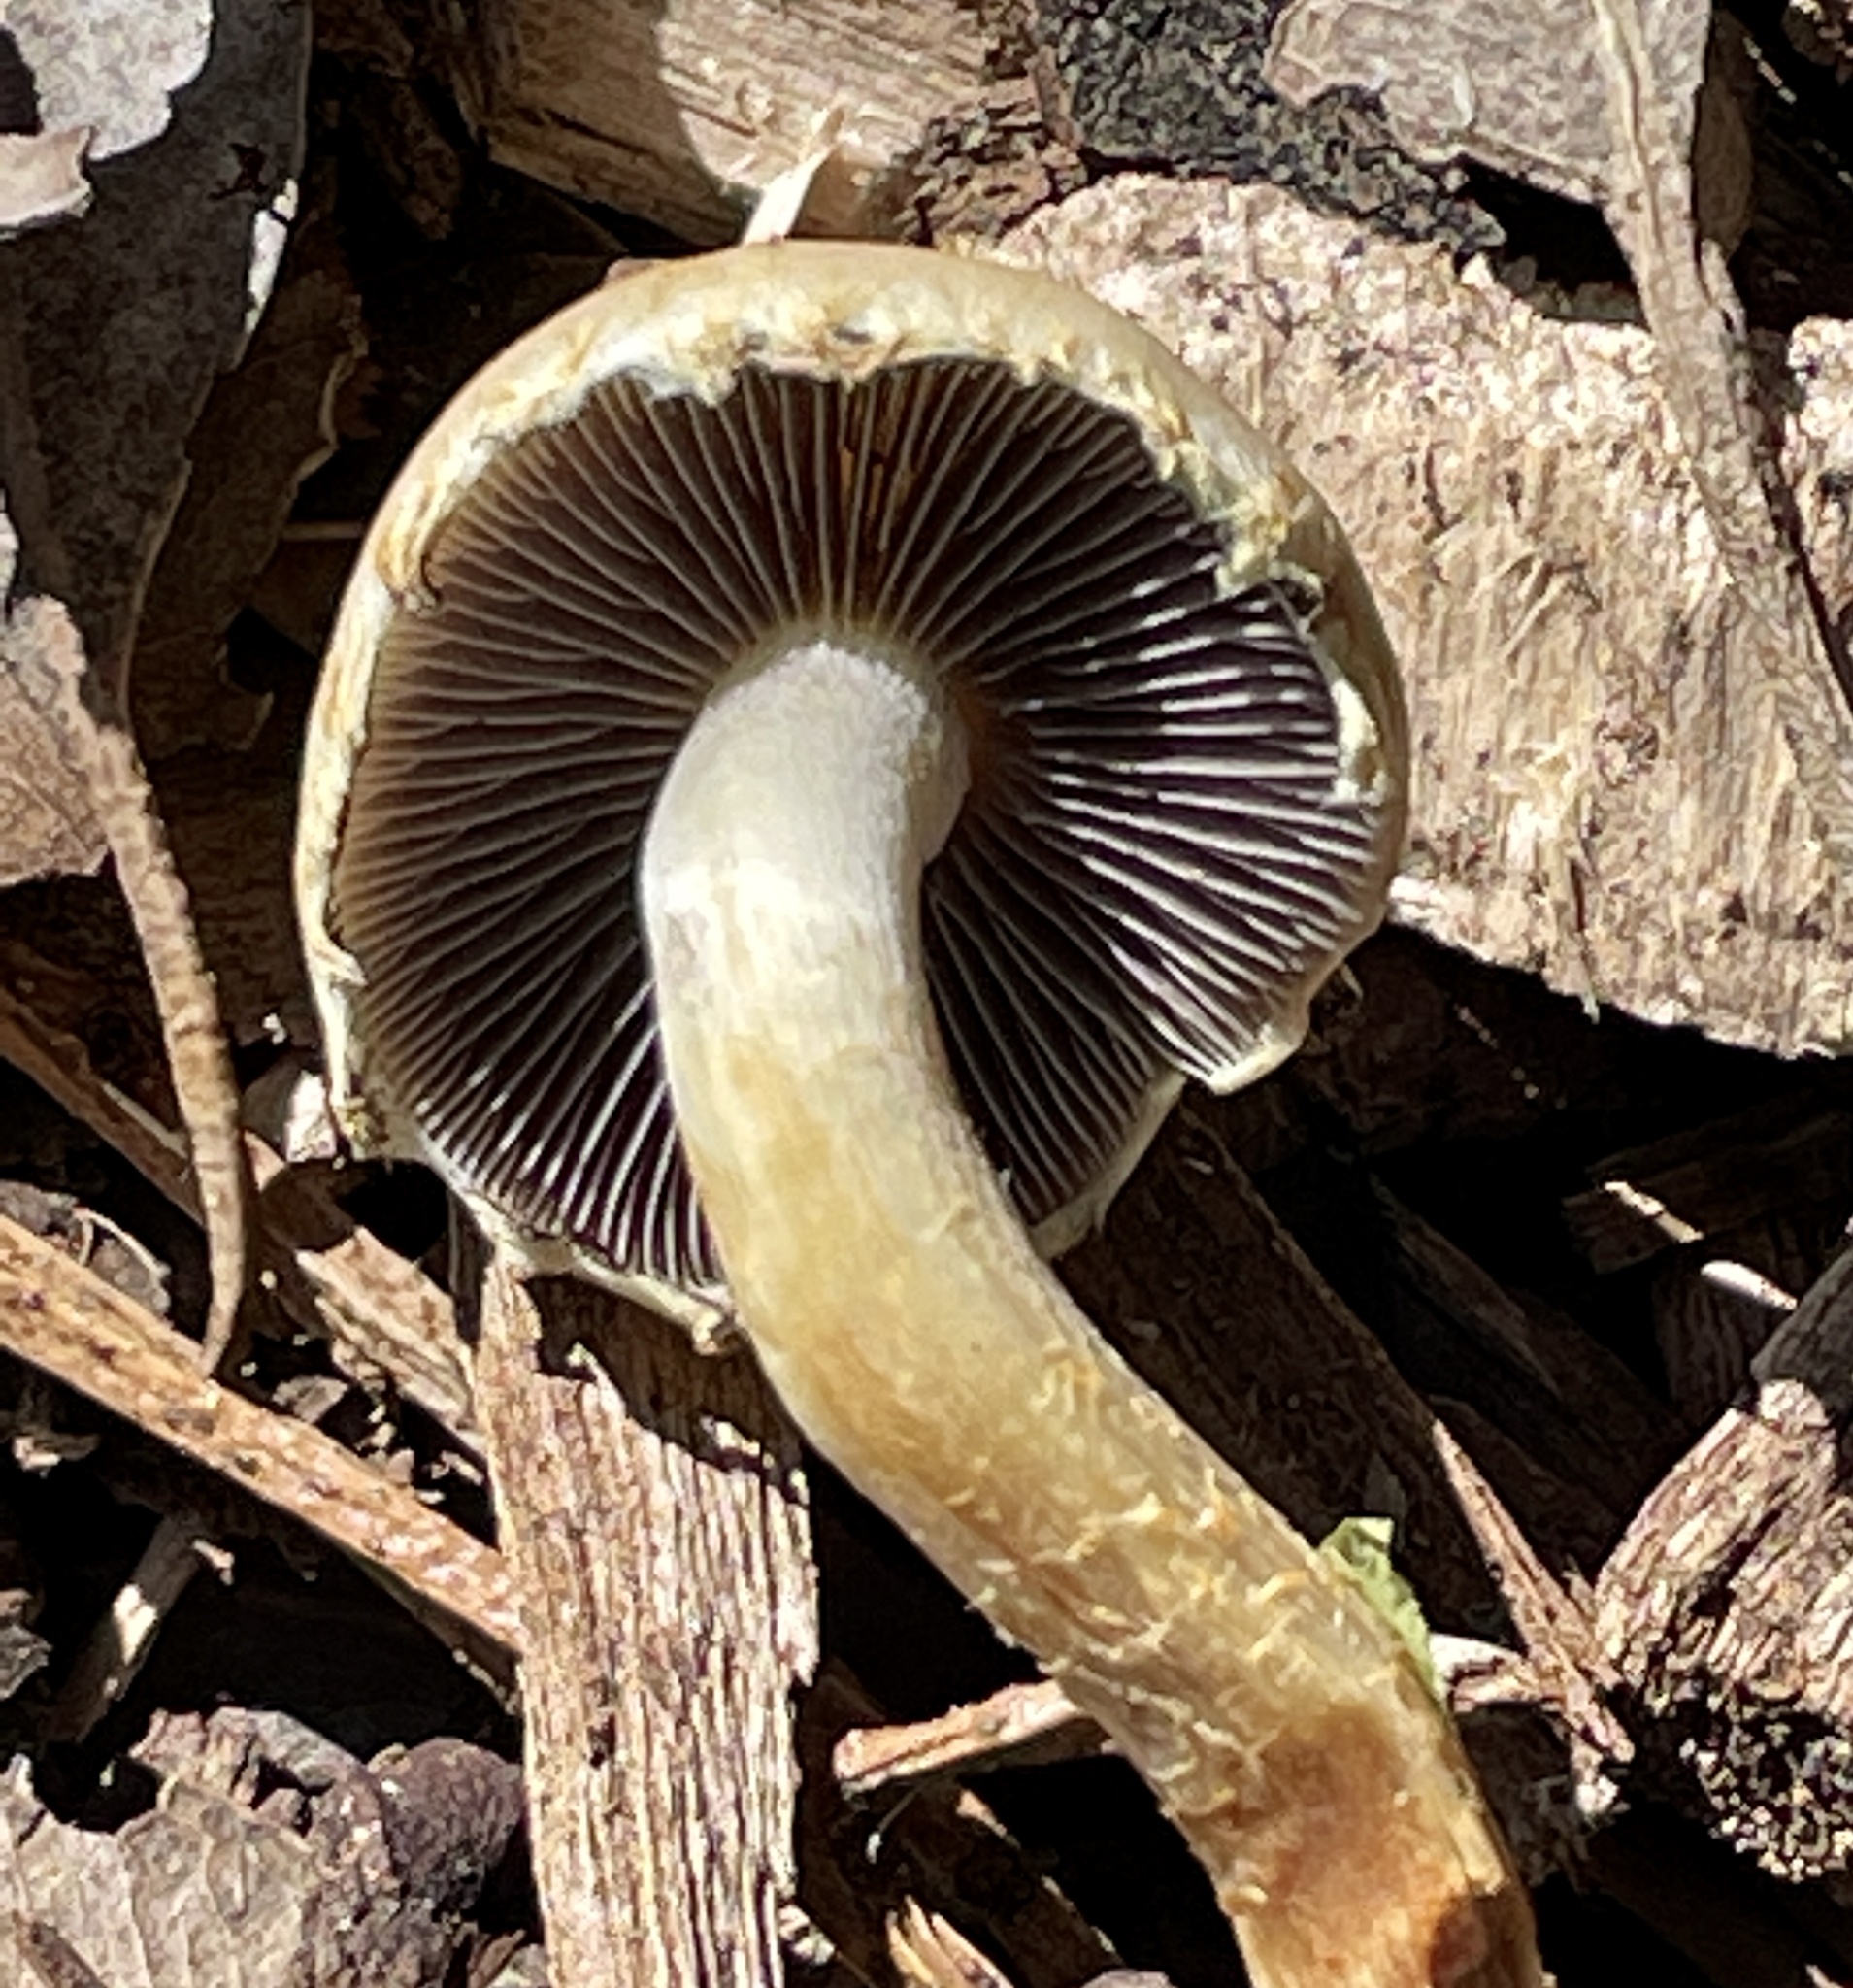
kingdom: Fungi
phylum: Basidiomycota
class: Agaricomycetes
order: Agaricales
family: Strophariaceae
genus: Leratiomyces
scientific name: Leratiomyces percevalii
